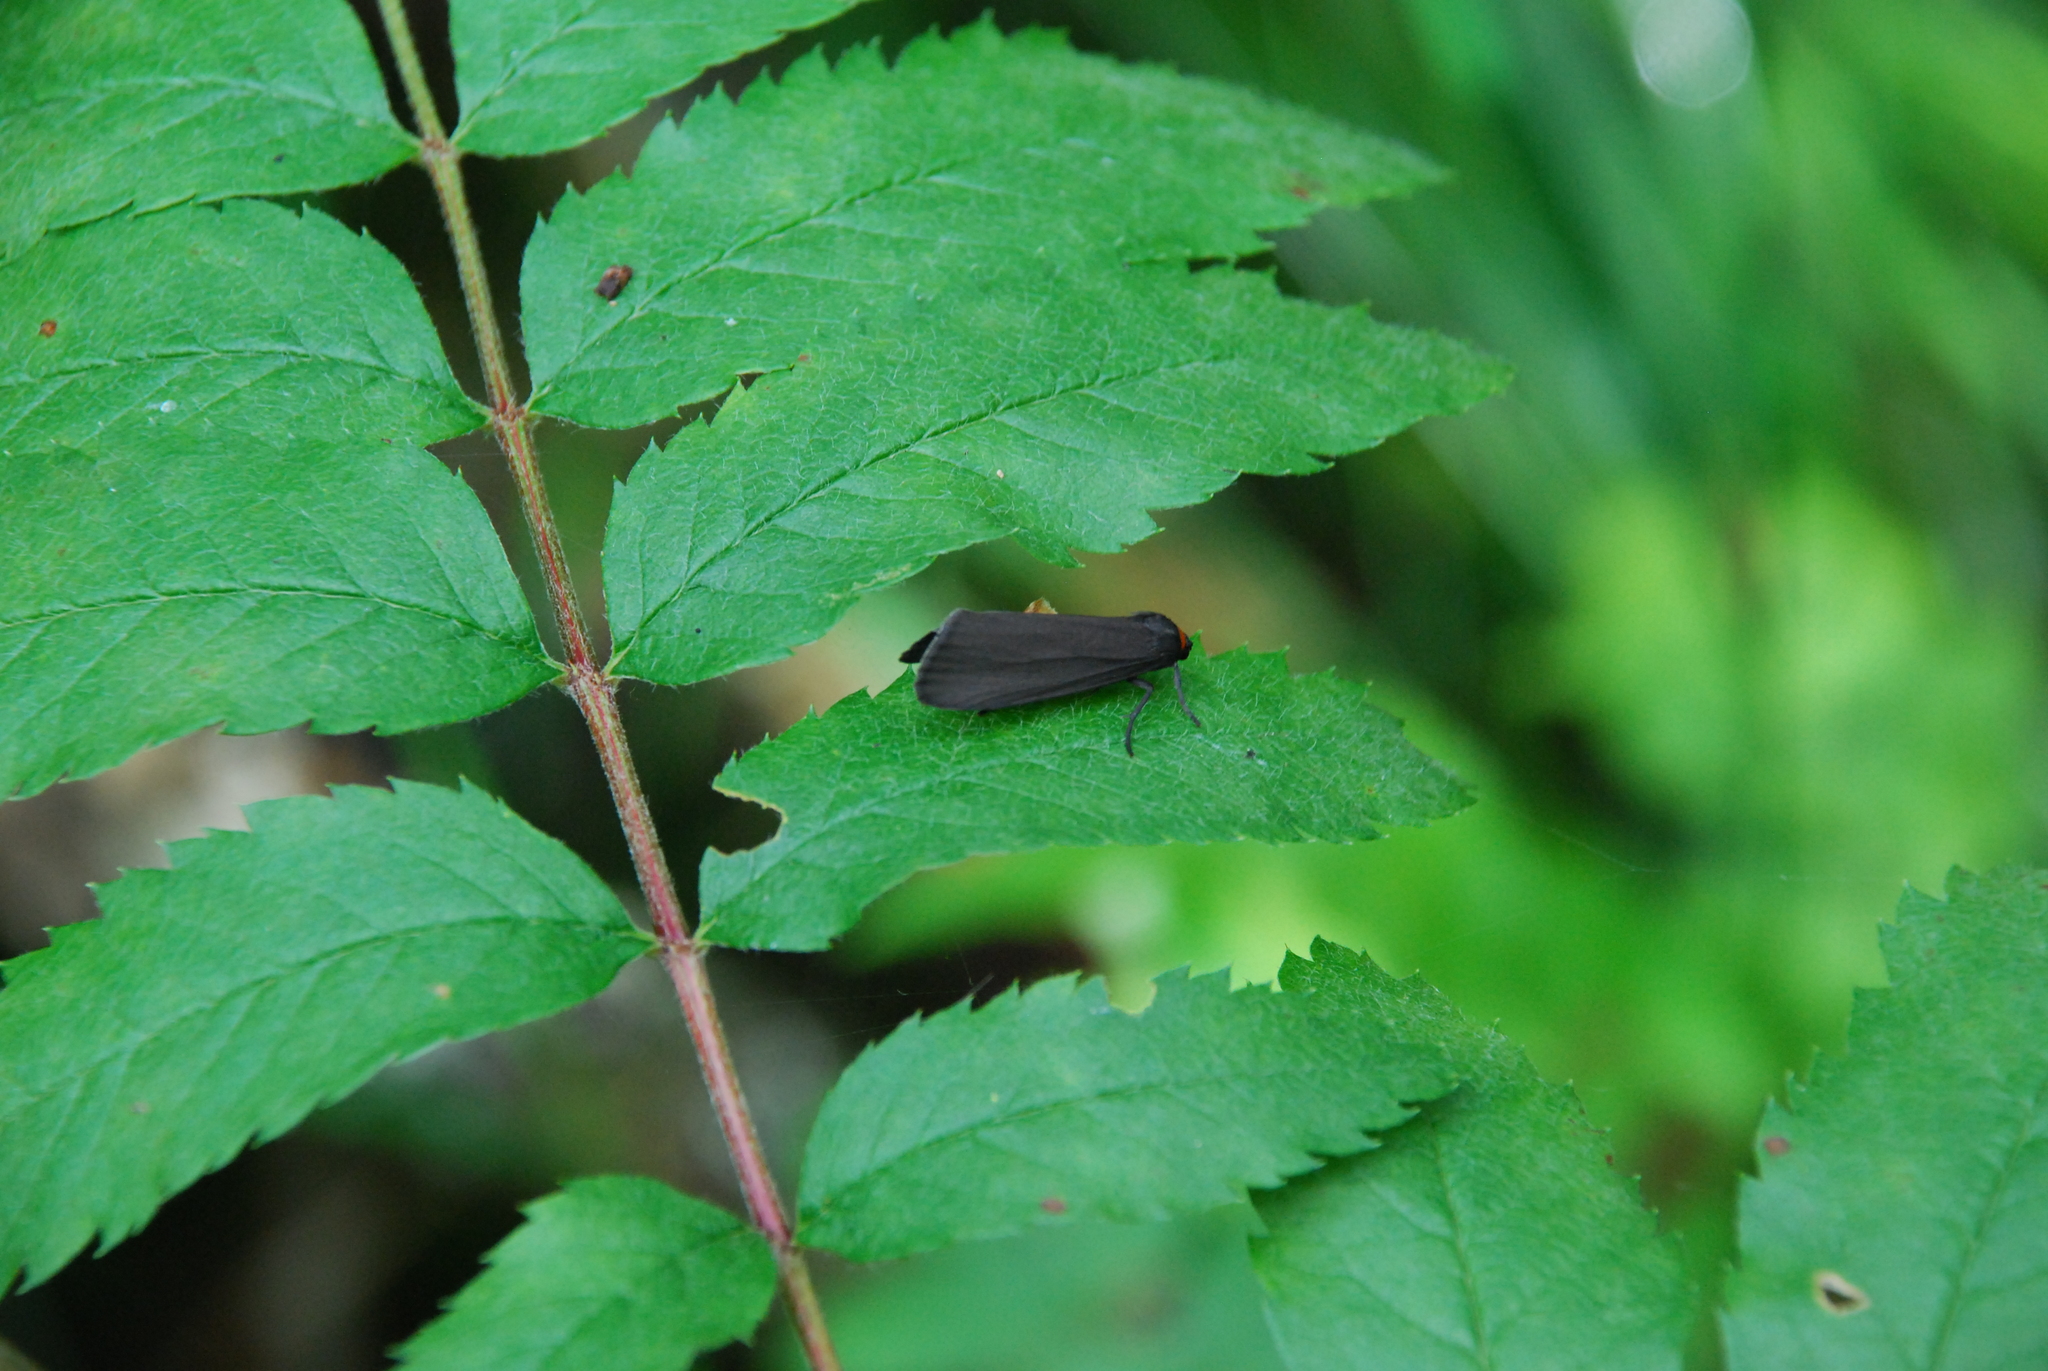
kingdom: Animalia
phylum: Arthropoda
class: Insecta
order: Lepidoptera
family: Erebidae
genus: Atolmis
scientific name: Atolmis rubricollis
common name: Red-necked footman
